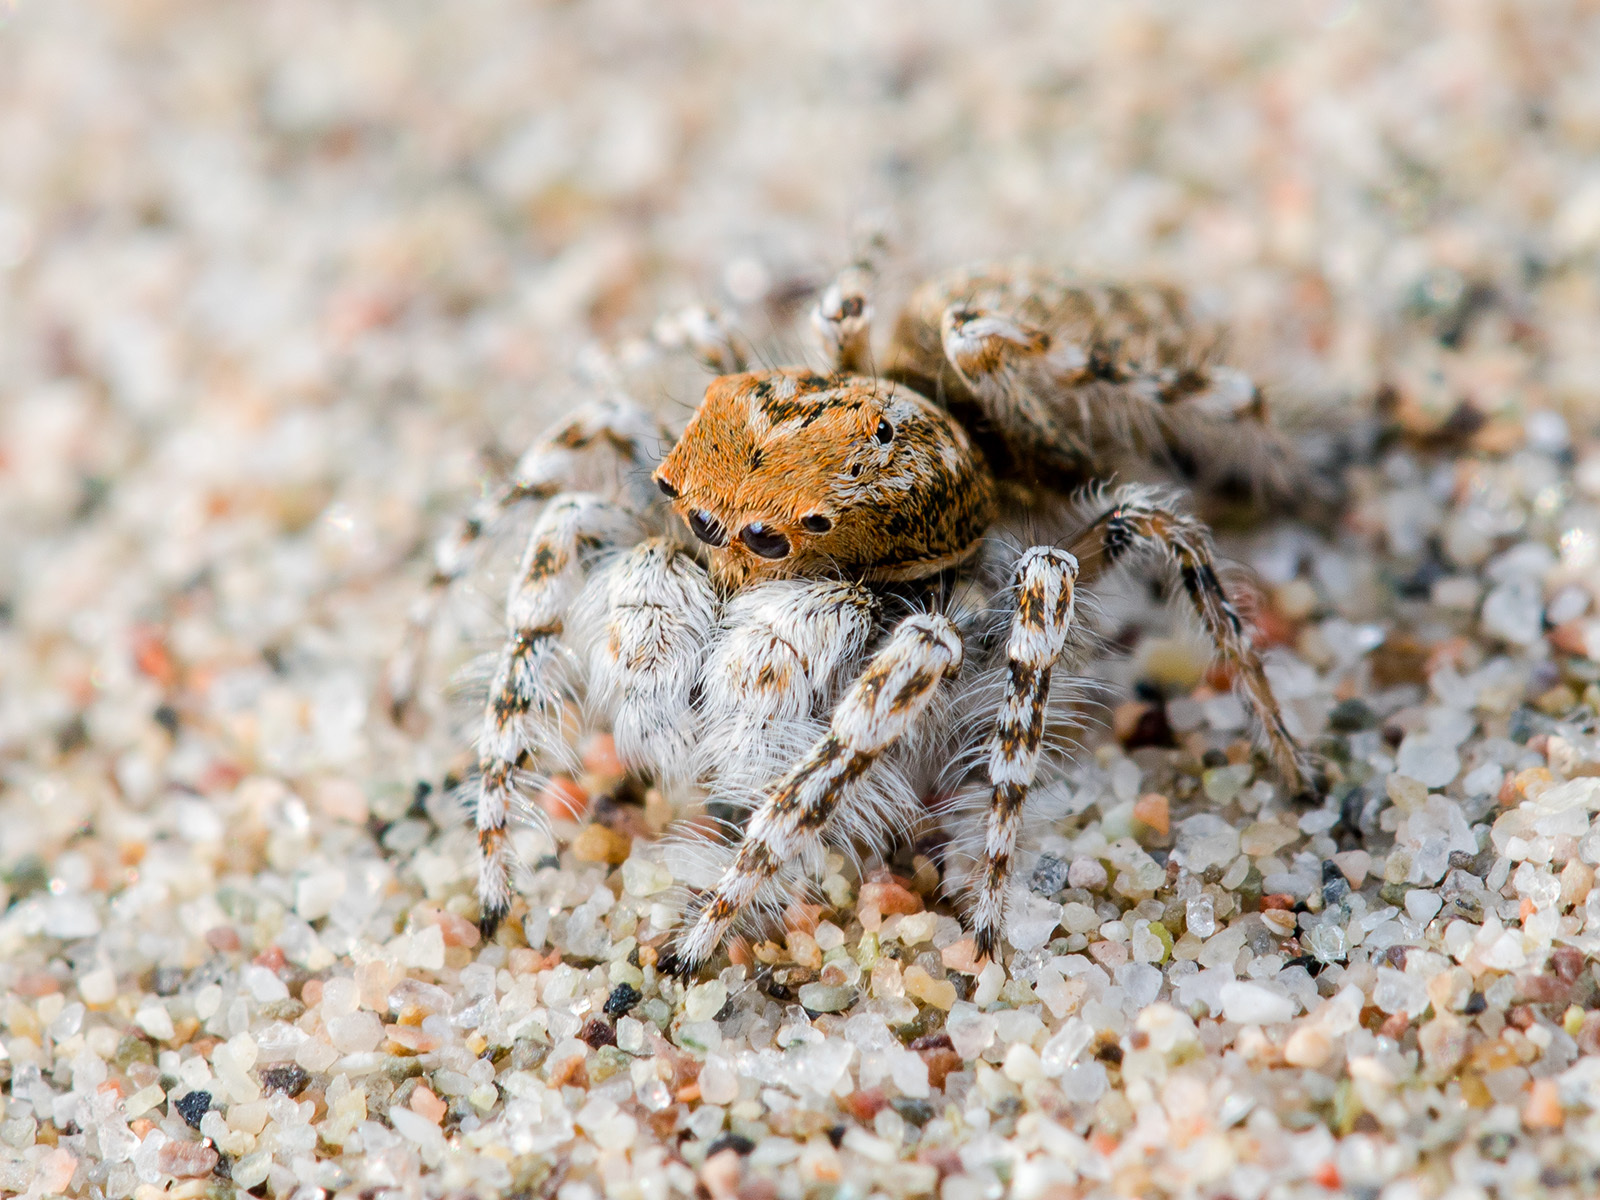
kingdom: Animalia
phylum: Arthropoda
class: Arachnida
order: Araneae
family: Salticidae
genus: Yllenus
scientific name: Yllenus uiguricus
